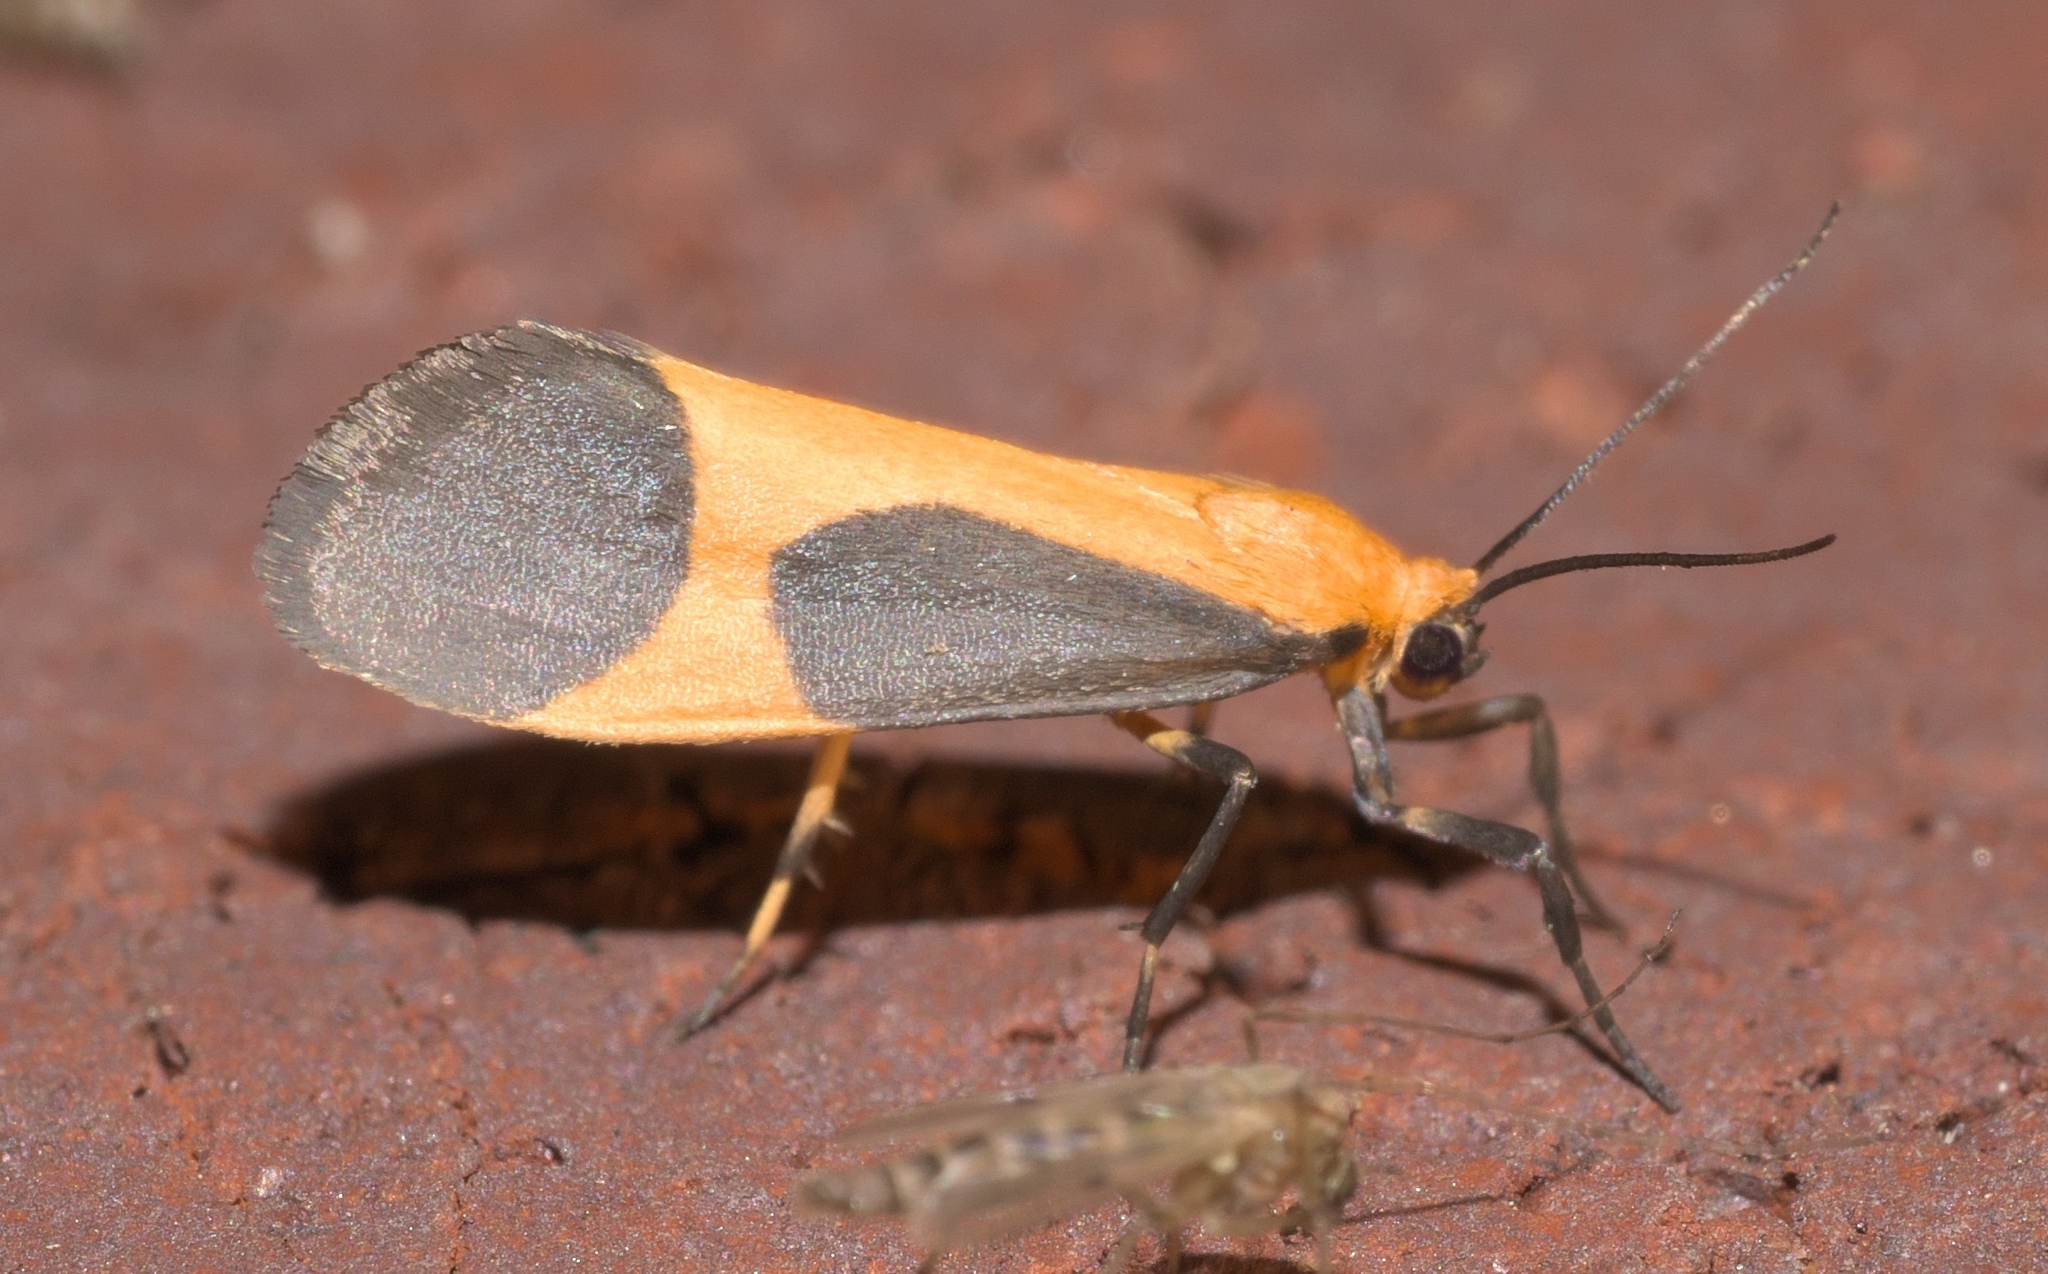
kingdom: Animalia
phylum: Arthropoda
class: Insecta
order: Lepidoptera
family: Erebidae
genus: Cisthene
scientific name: Cisthene picta
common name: Pictured lichen moth
